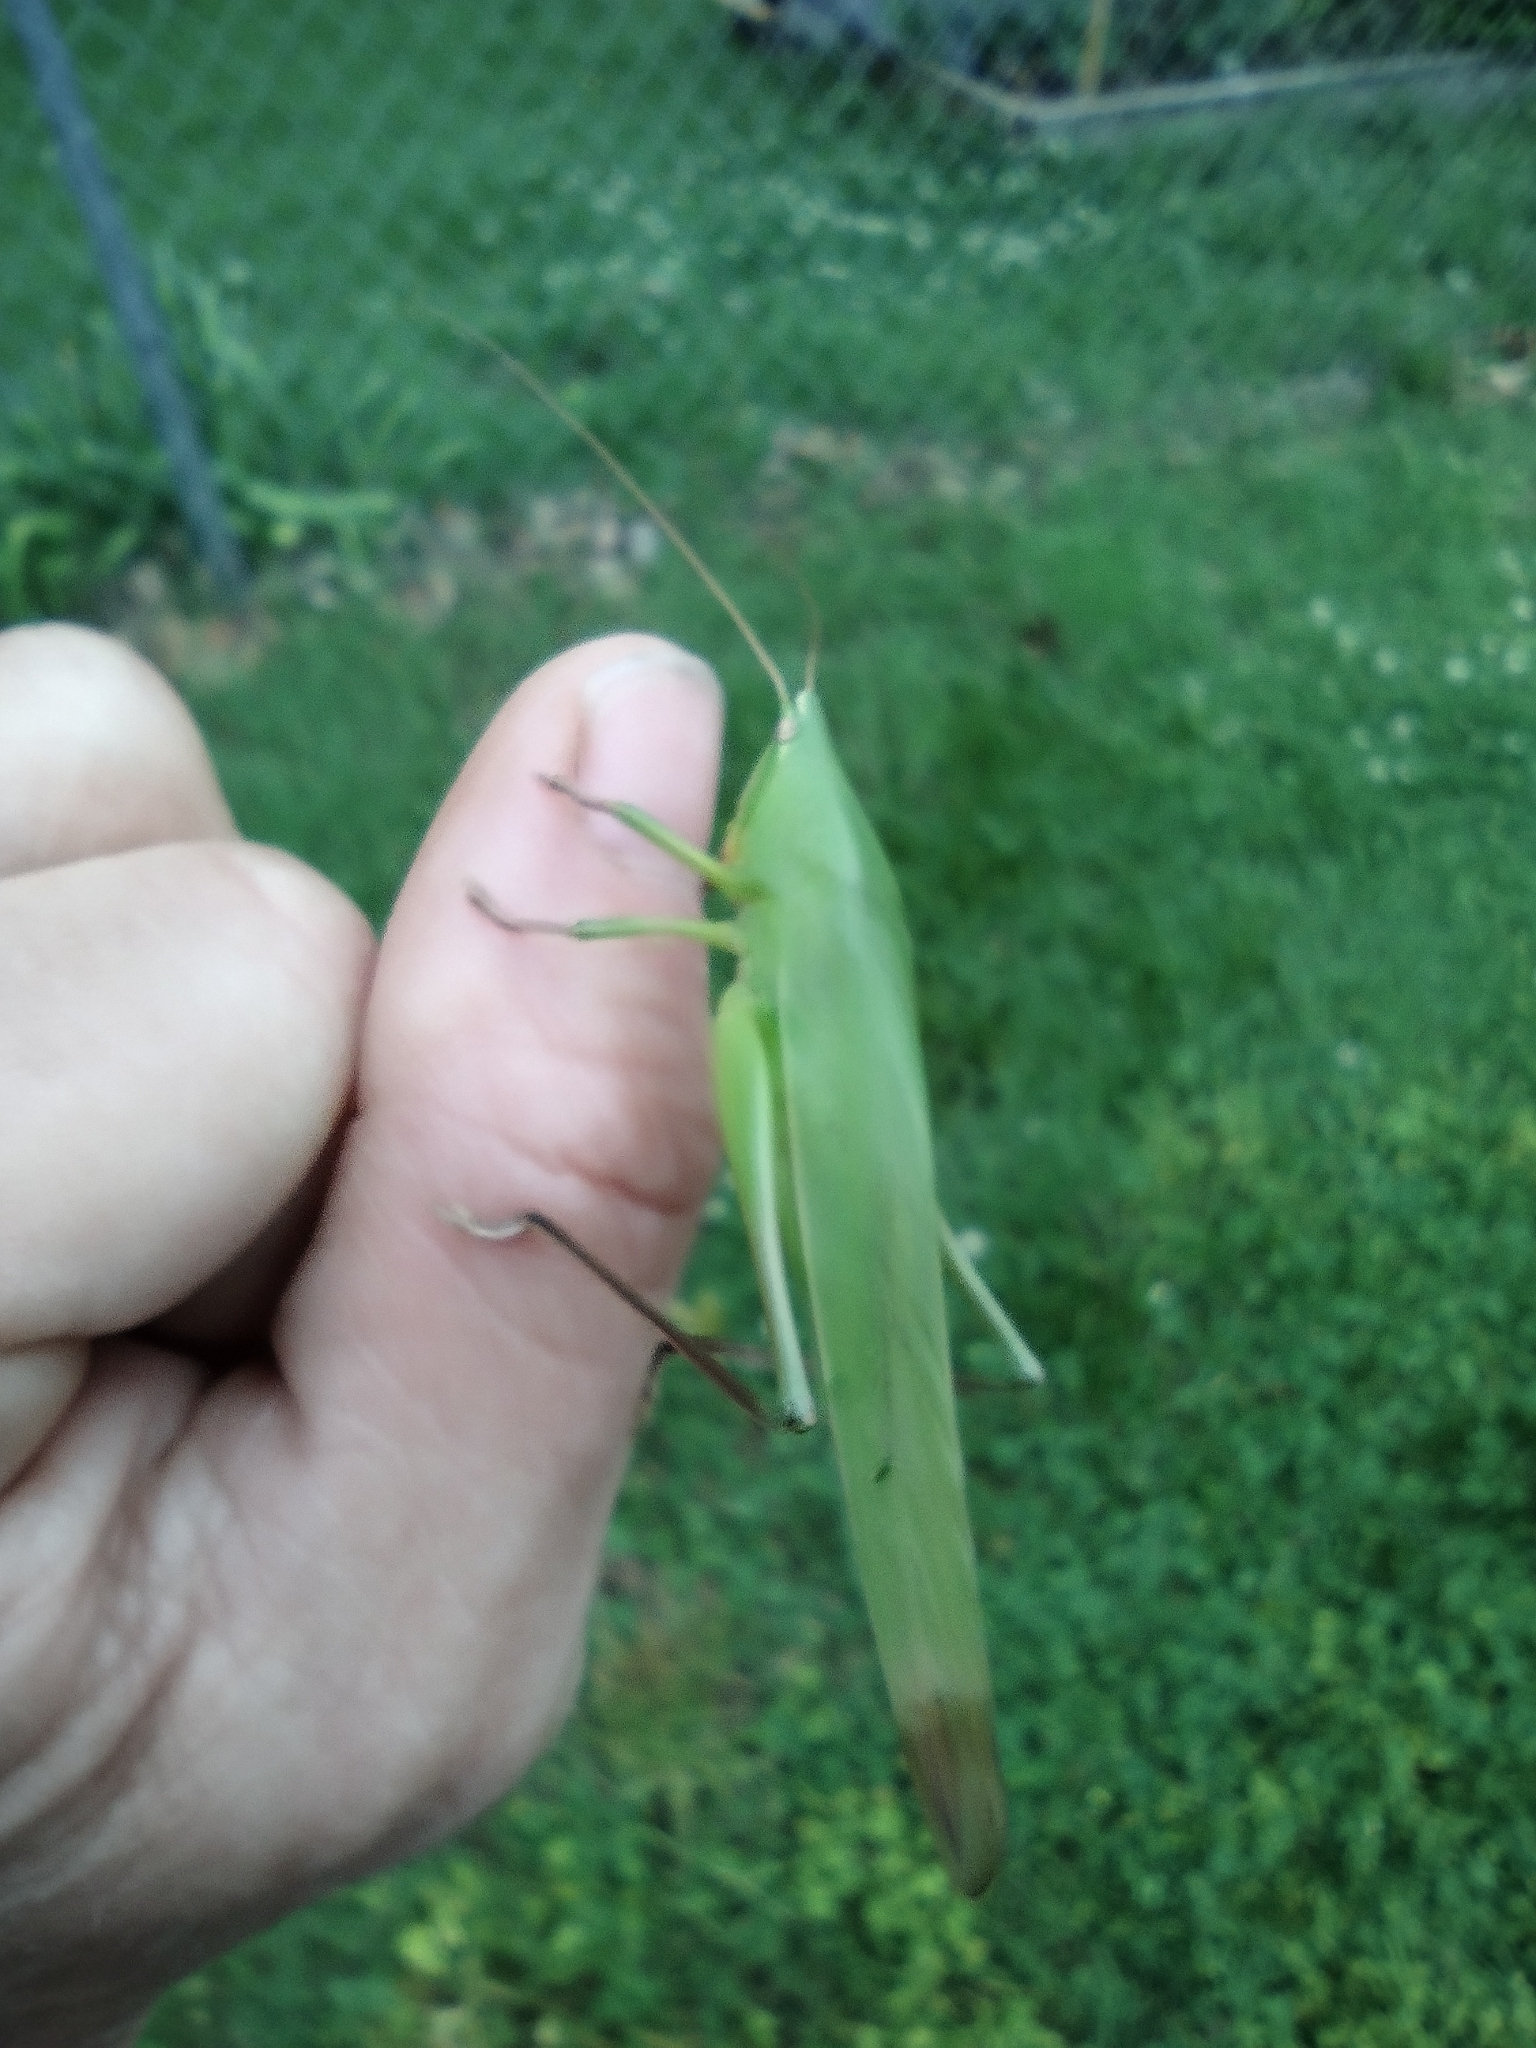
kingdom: Animalia
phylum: Arthropoda
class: Insecta
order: Orthoptera
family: Tettigoniidae
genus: Neoconocephalus
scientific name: Neoconocephalus triops
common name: Broad-tipped conehead
